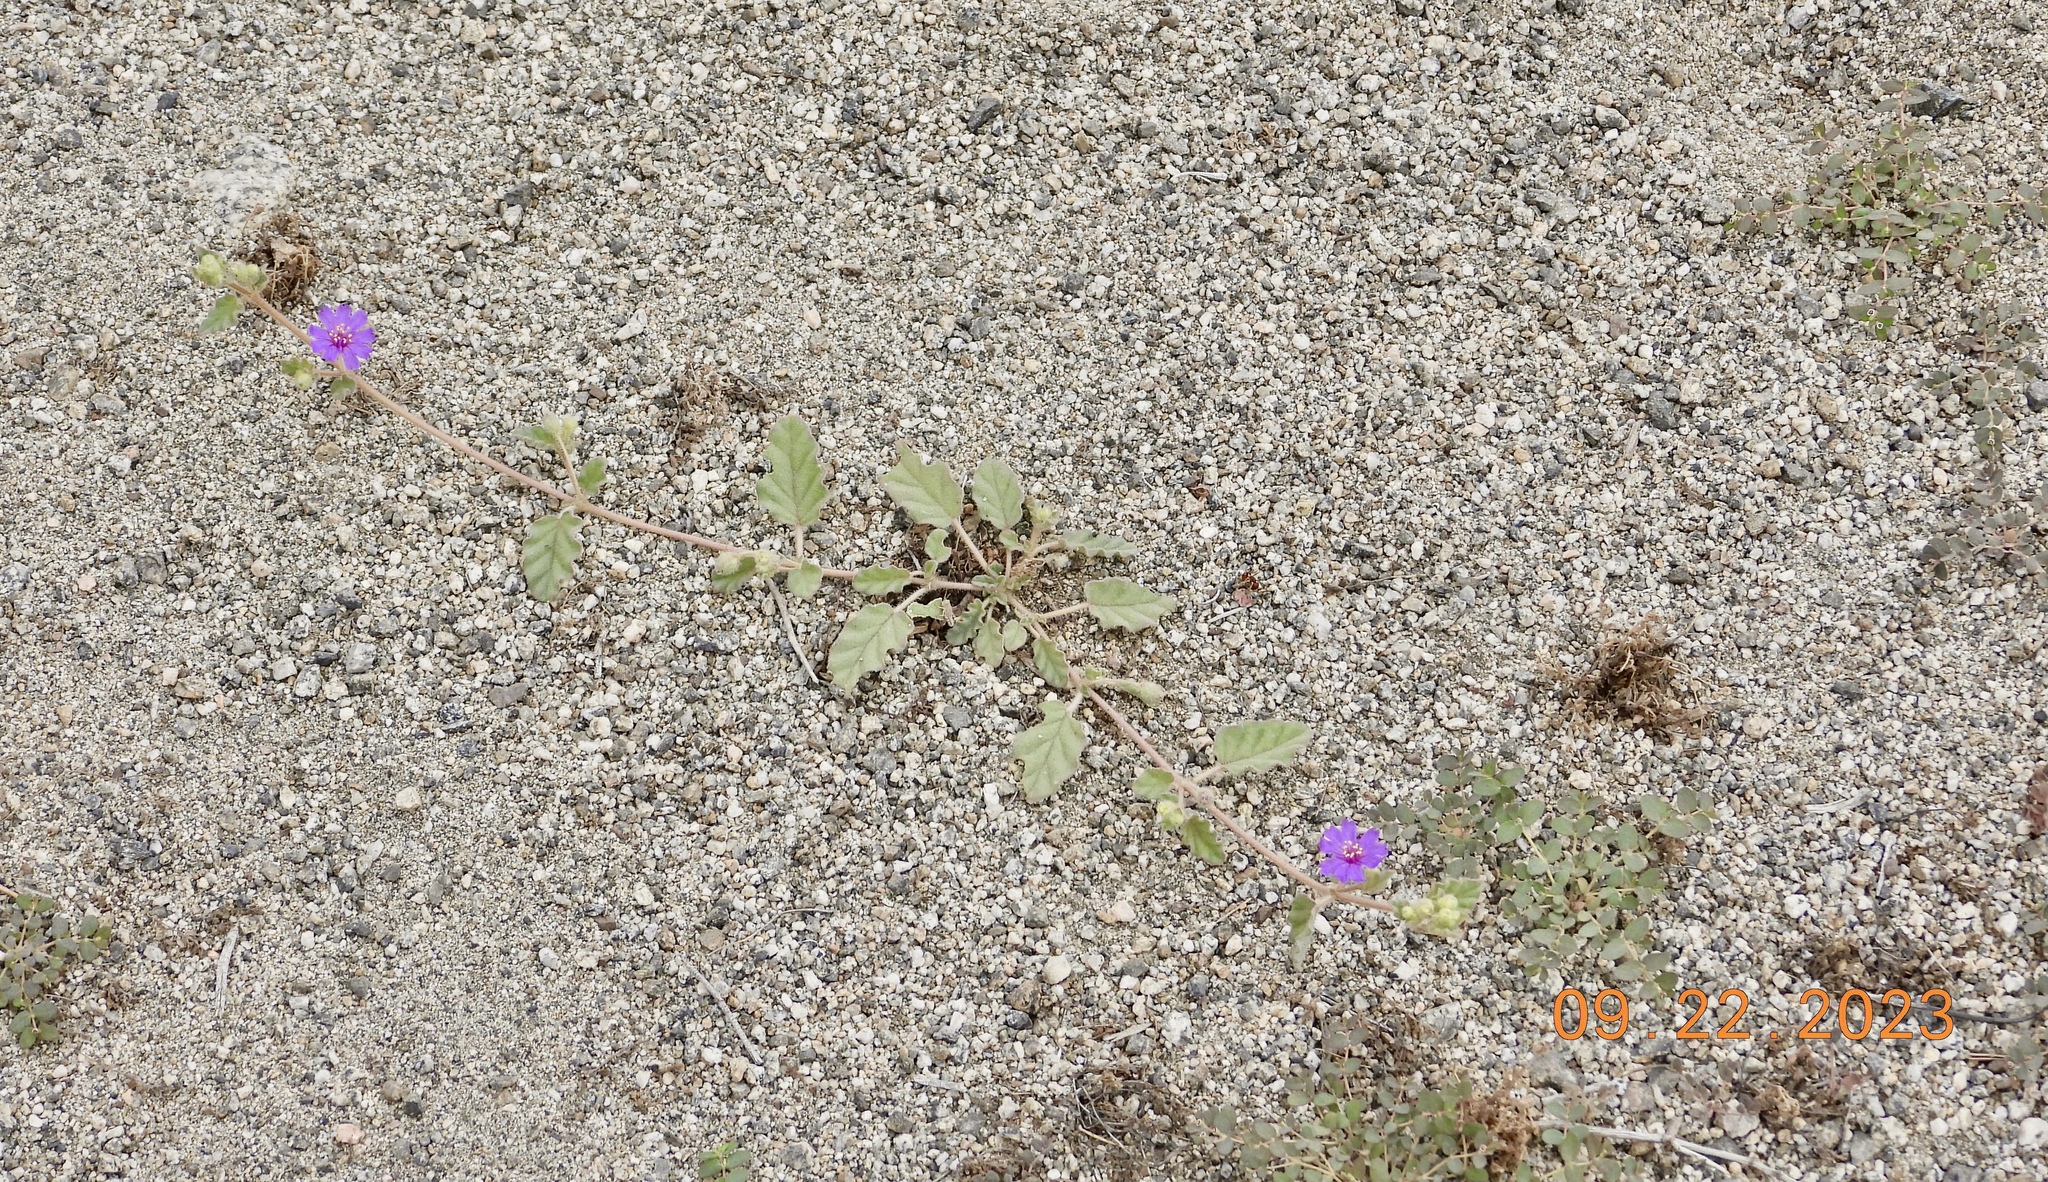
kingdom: Plantae
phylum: Tracheophyta
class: Magnoliopsida
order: Caryophyllales
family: Nyctaginaceae
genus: Allionia
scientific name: Allionia incarnata
